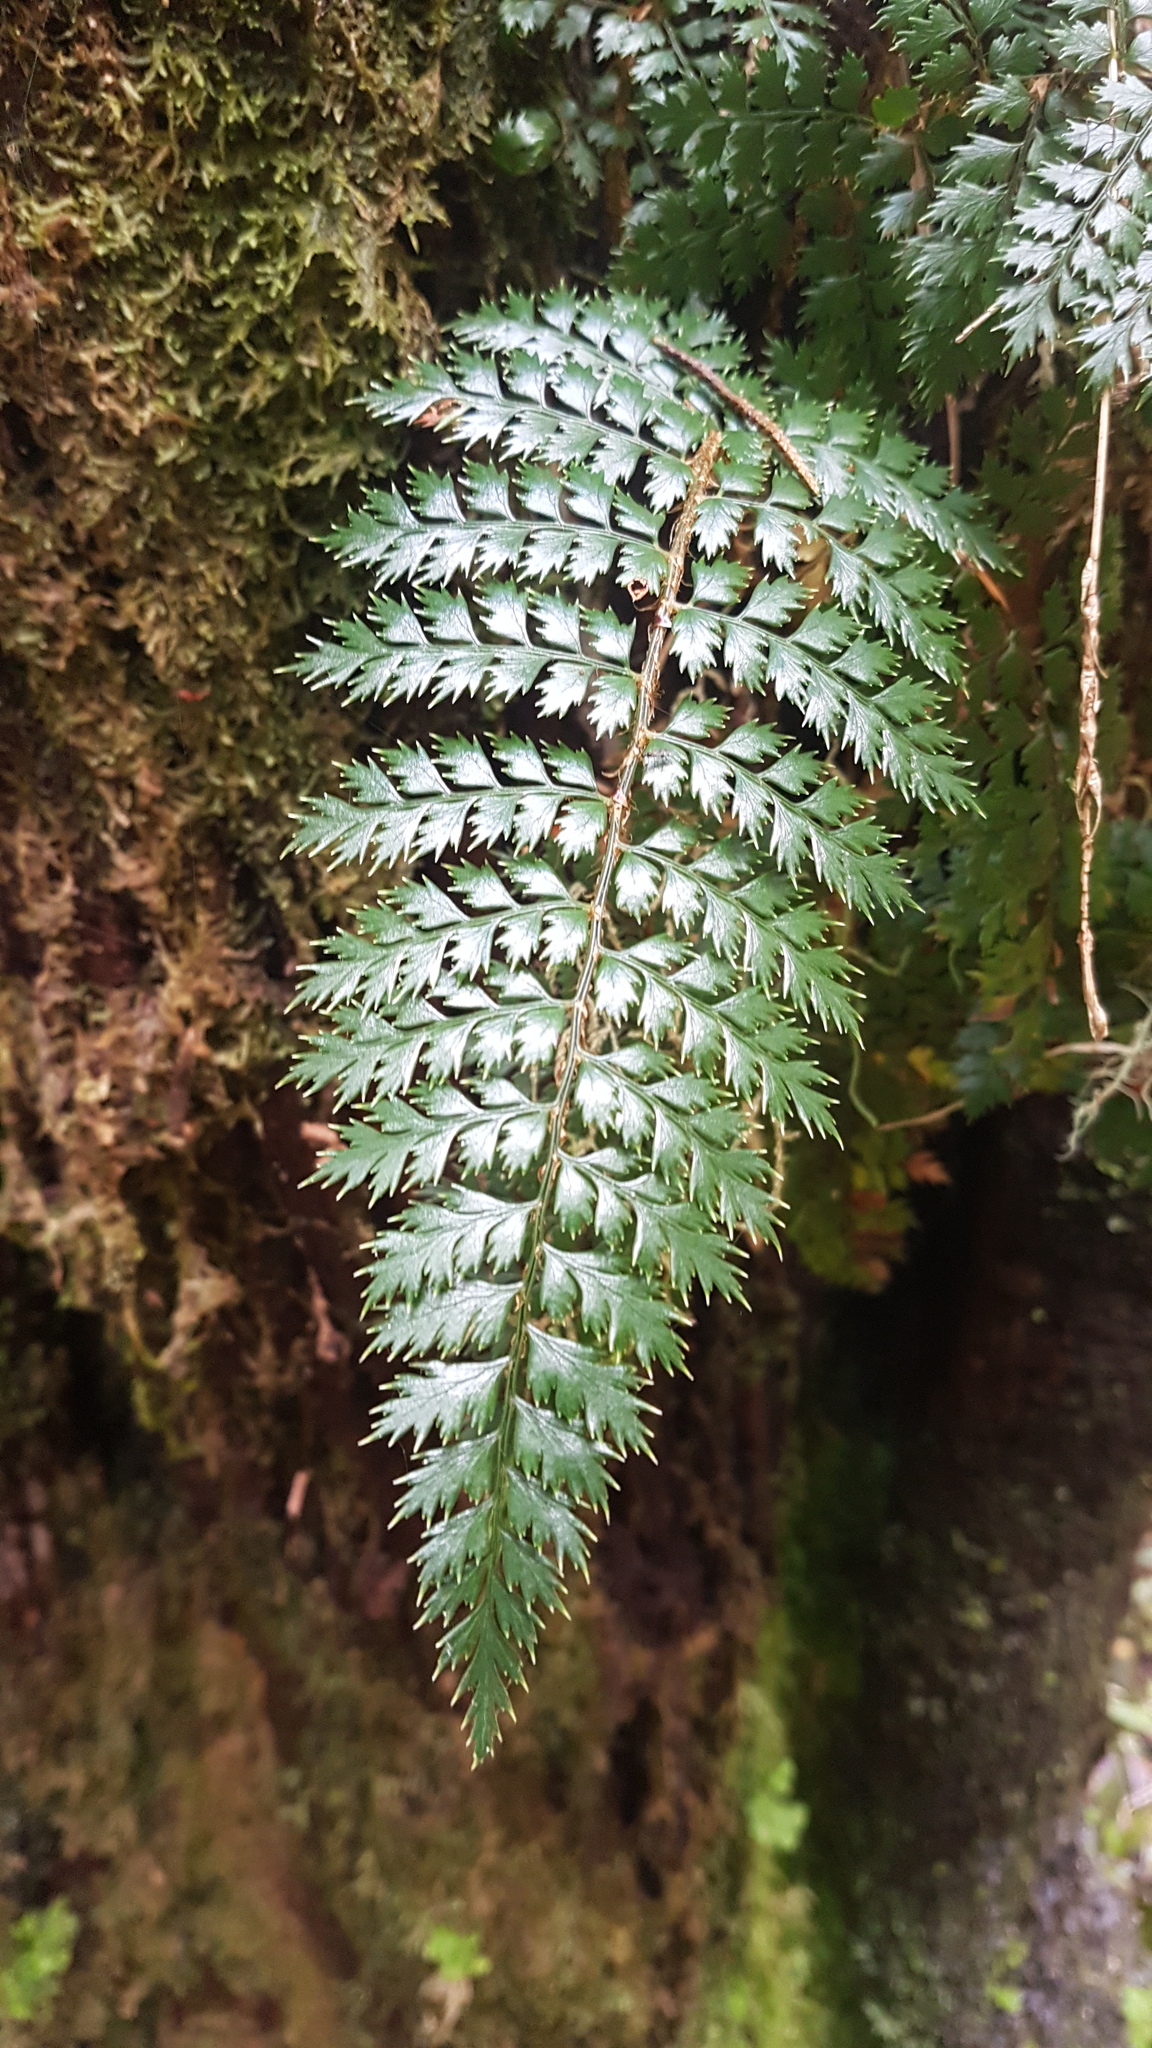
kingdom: Plantae
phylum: Tracheophyta
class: Polypodiopsida
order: Polypodiales
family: Dryopteridaceae
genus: Polystichum
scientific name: Polystichum vestitum
